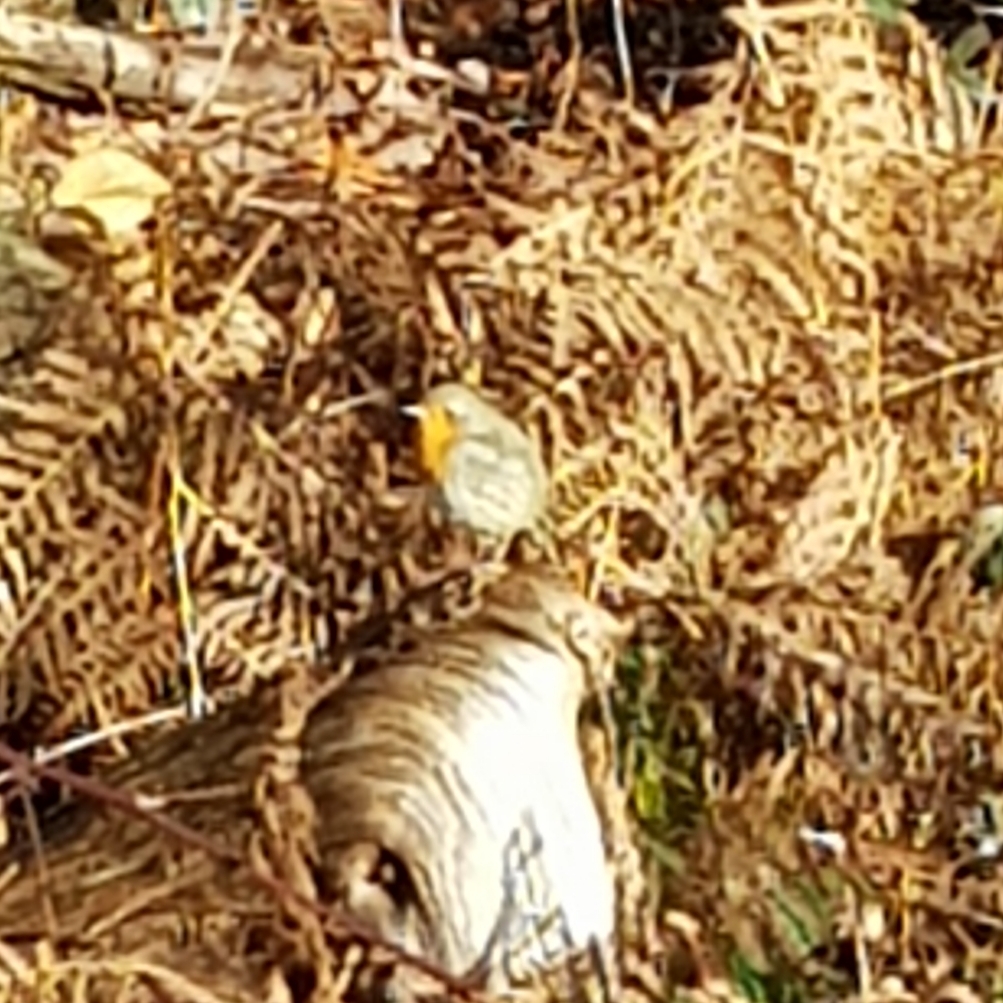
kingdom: Animalia
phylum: Chordata
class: Aves
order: Passeriformes
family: Muscicapidae
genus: Erithacus
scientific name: Erithacus rubecula
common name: European robin
